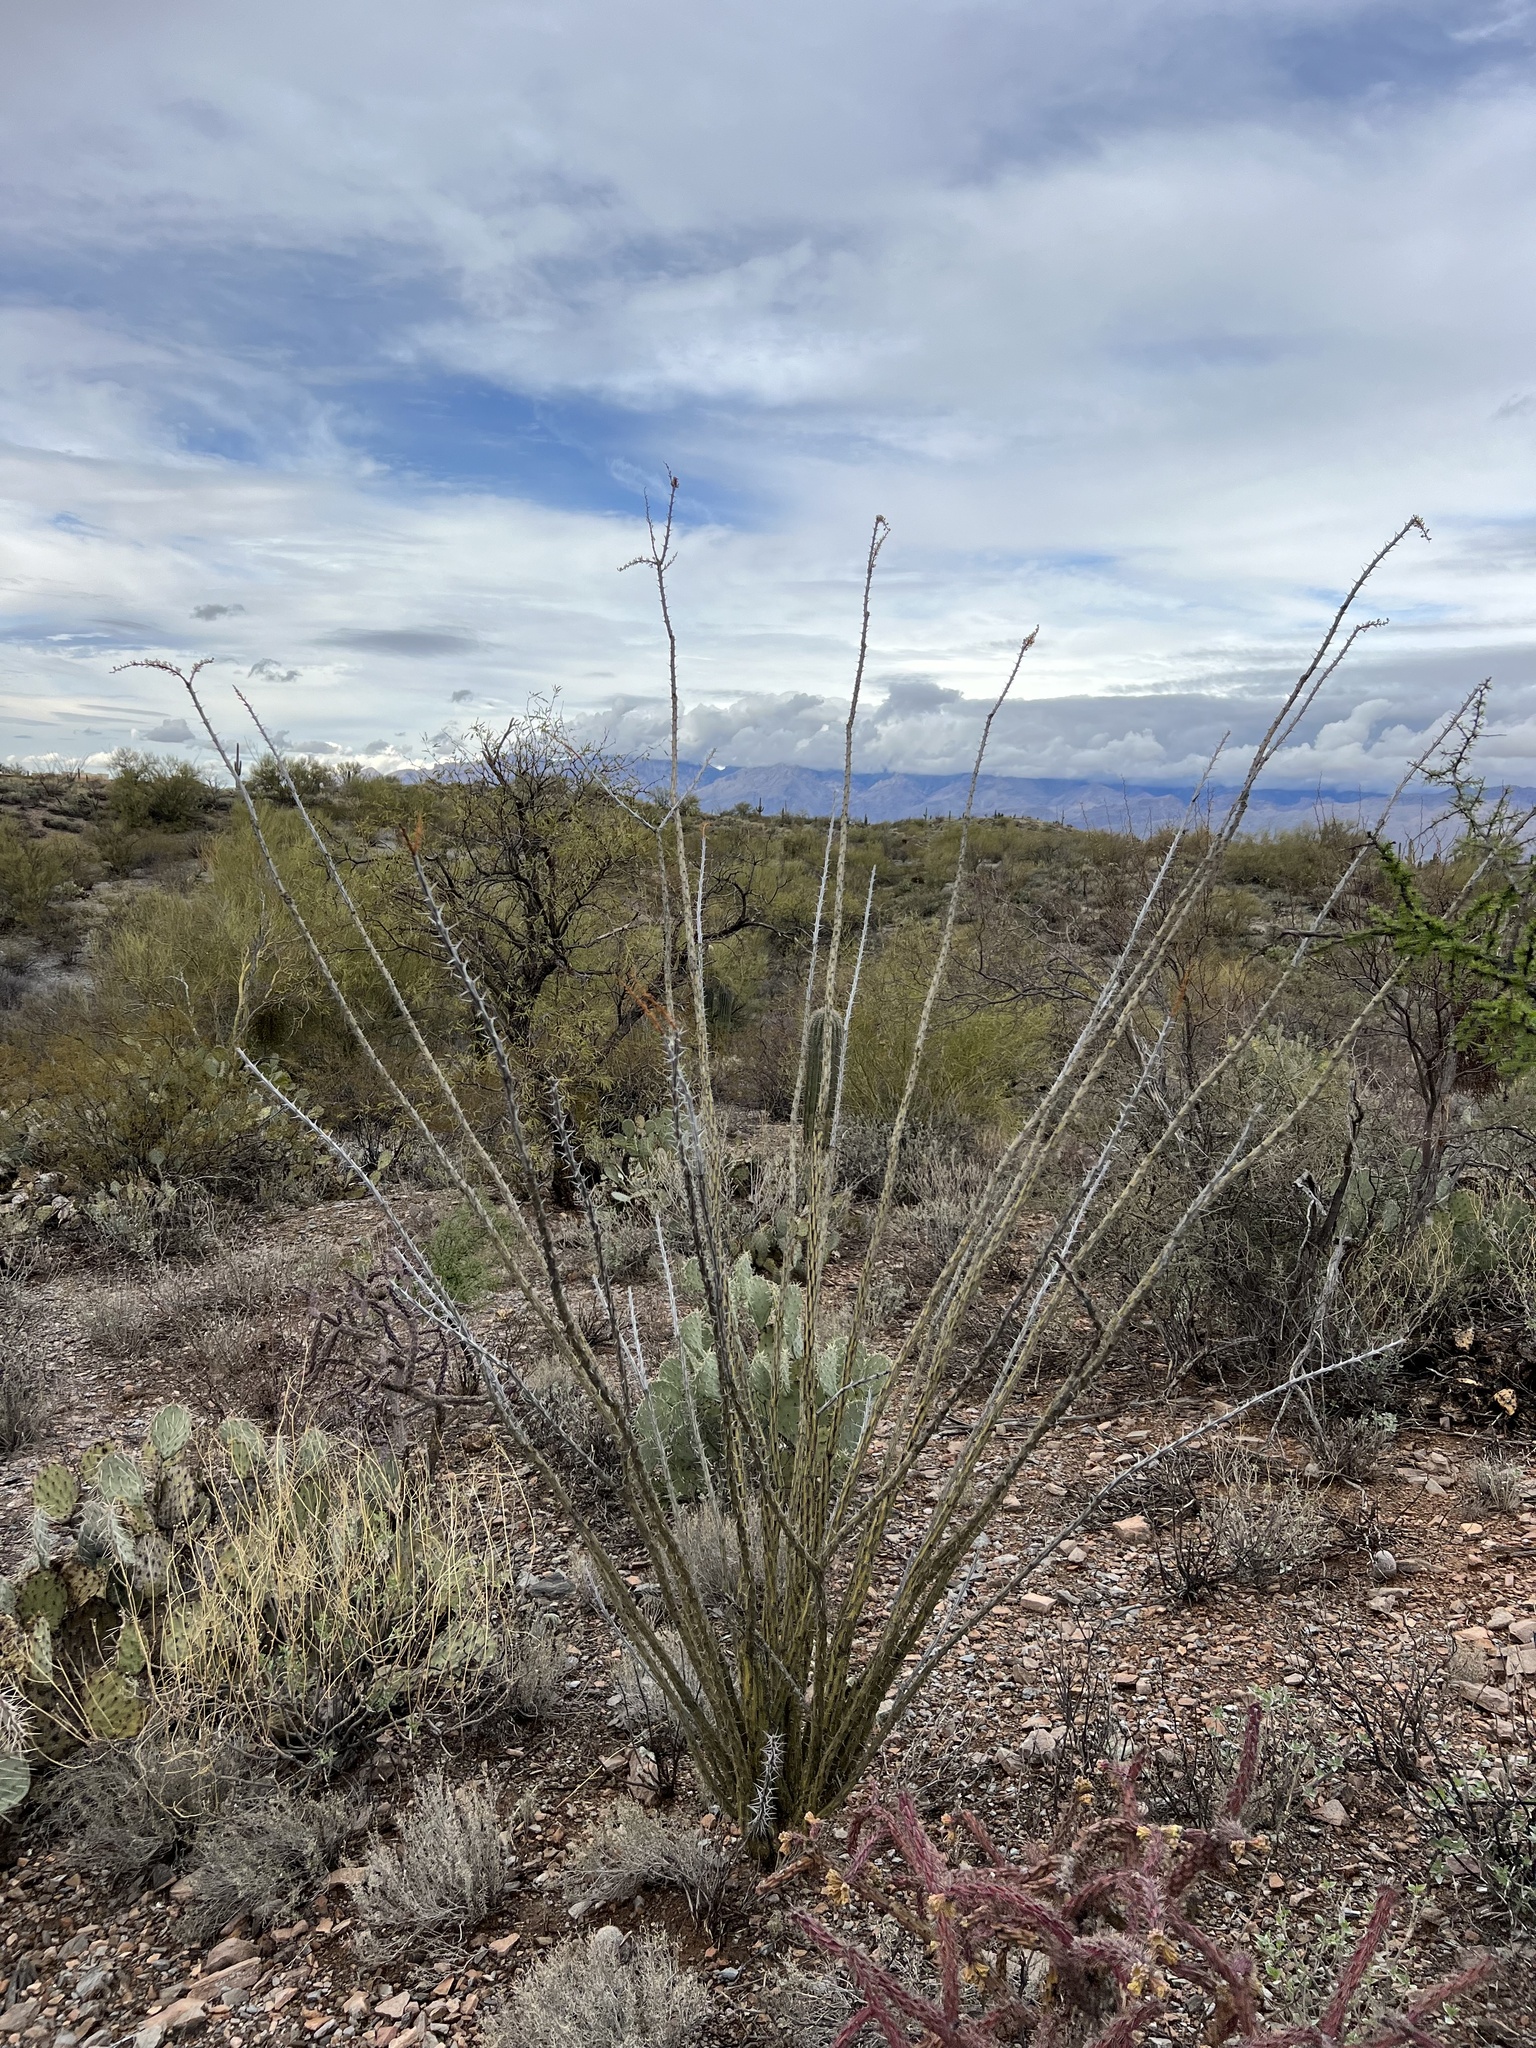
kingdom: Plantae
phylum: Tracheophyta
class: Magnoliopsida
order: Ericales
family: Fouquieriaceae
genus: Fouquieria
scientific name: Fouquieria splendens
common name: Vine-cactus
